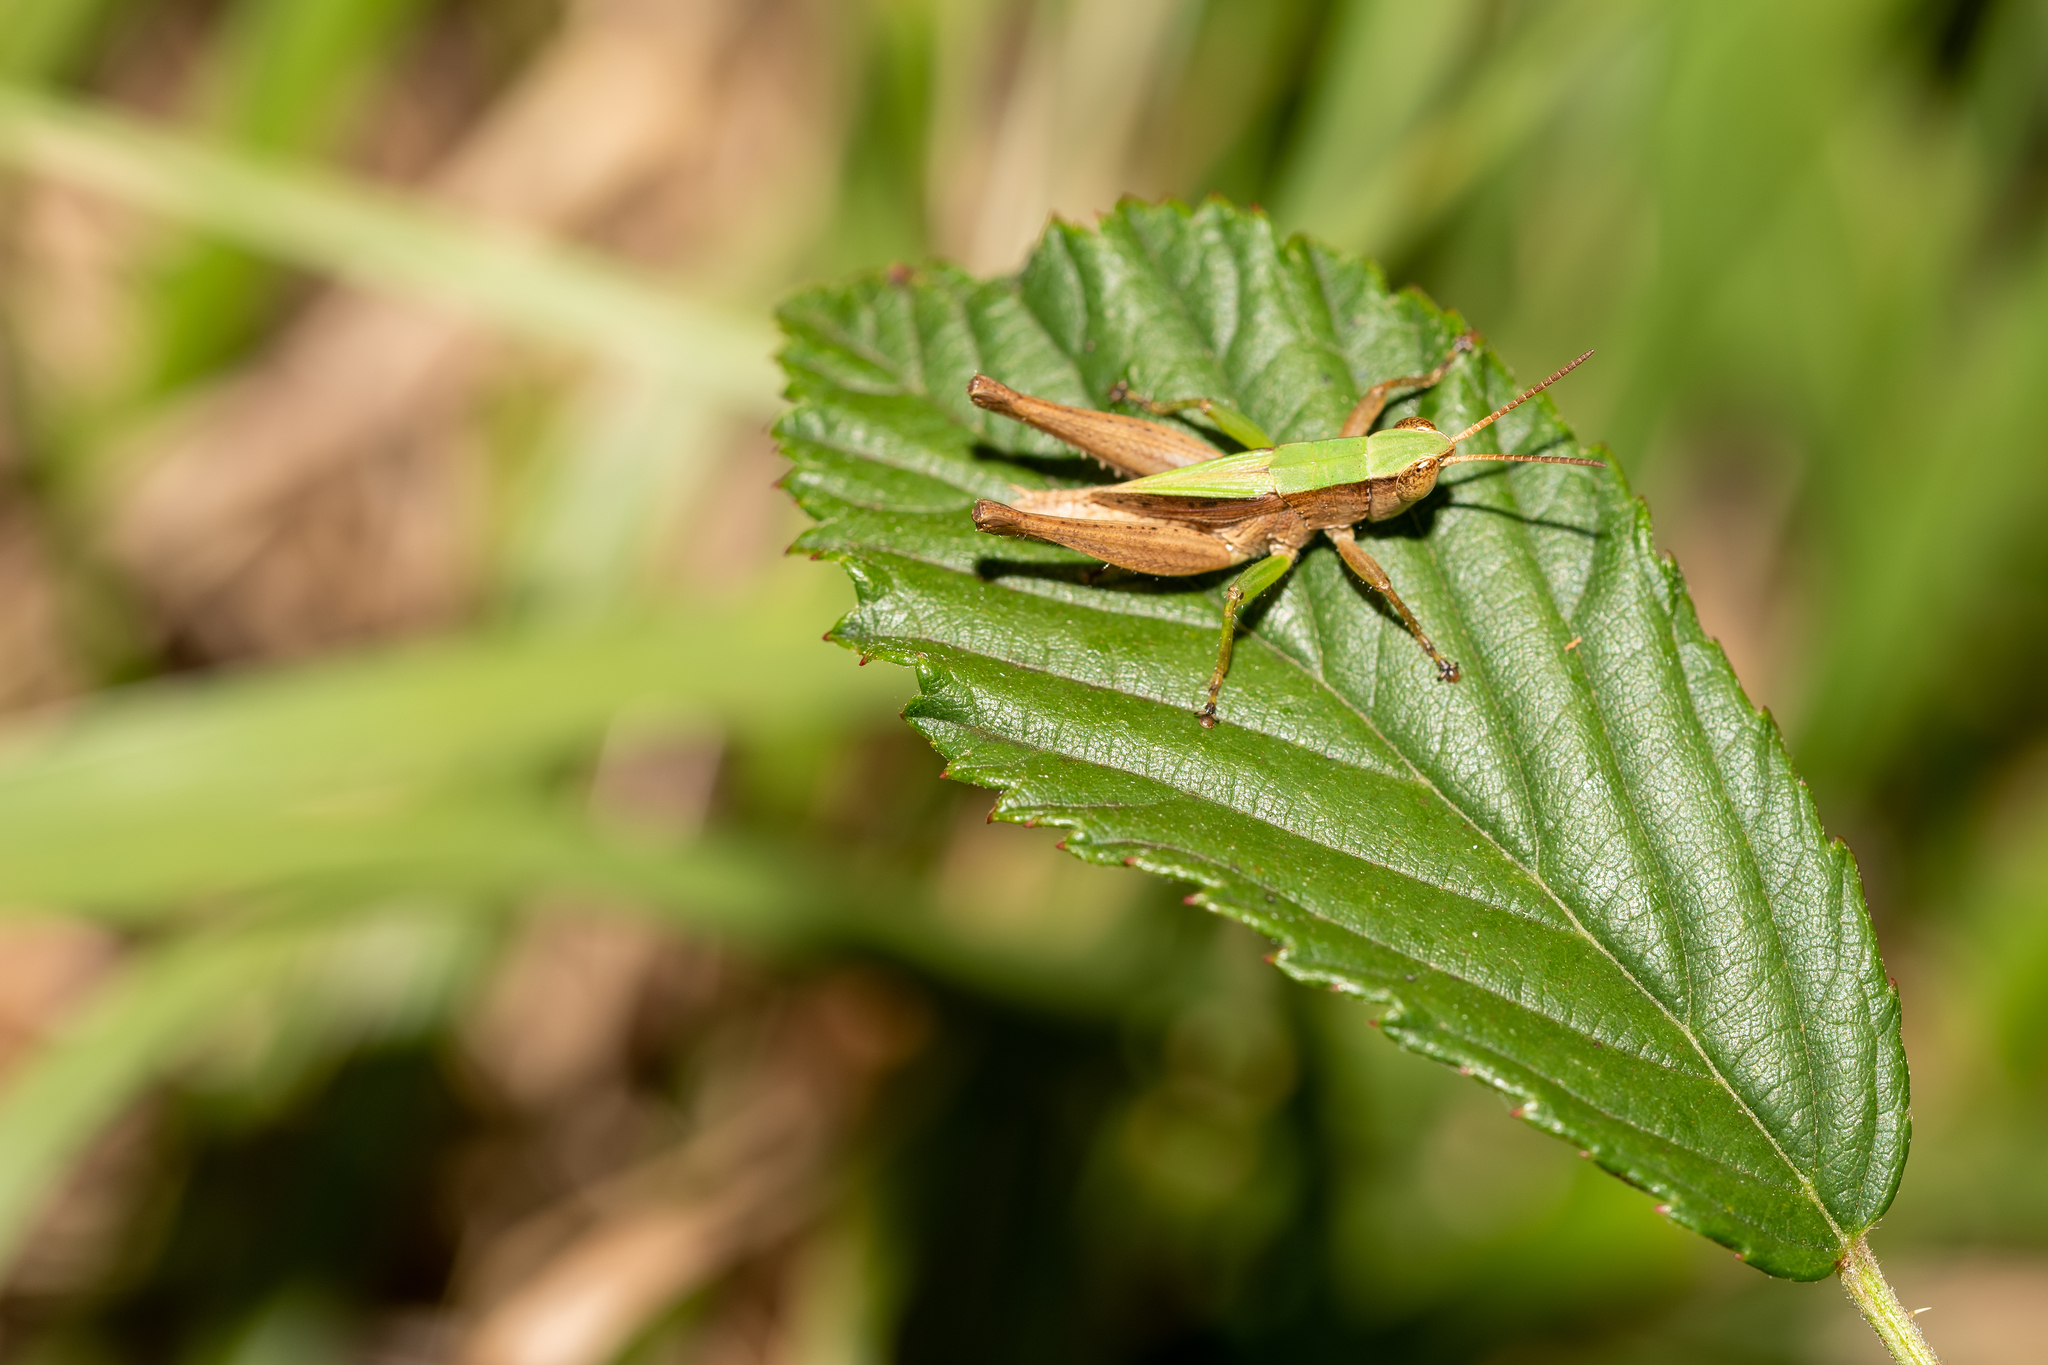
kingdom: Animalia
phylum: Arthropoda
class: Insecta
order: Orthoptera
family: Acrididae
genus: Dichromorpha
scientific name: Dichromorpha viridis
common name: Short-winged green grasshopper
